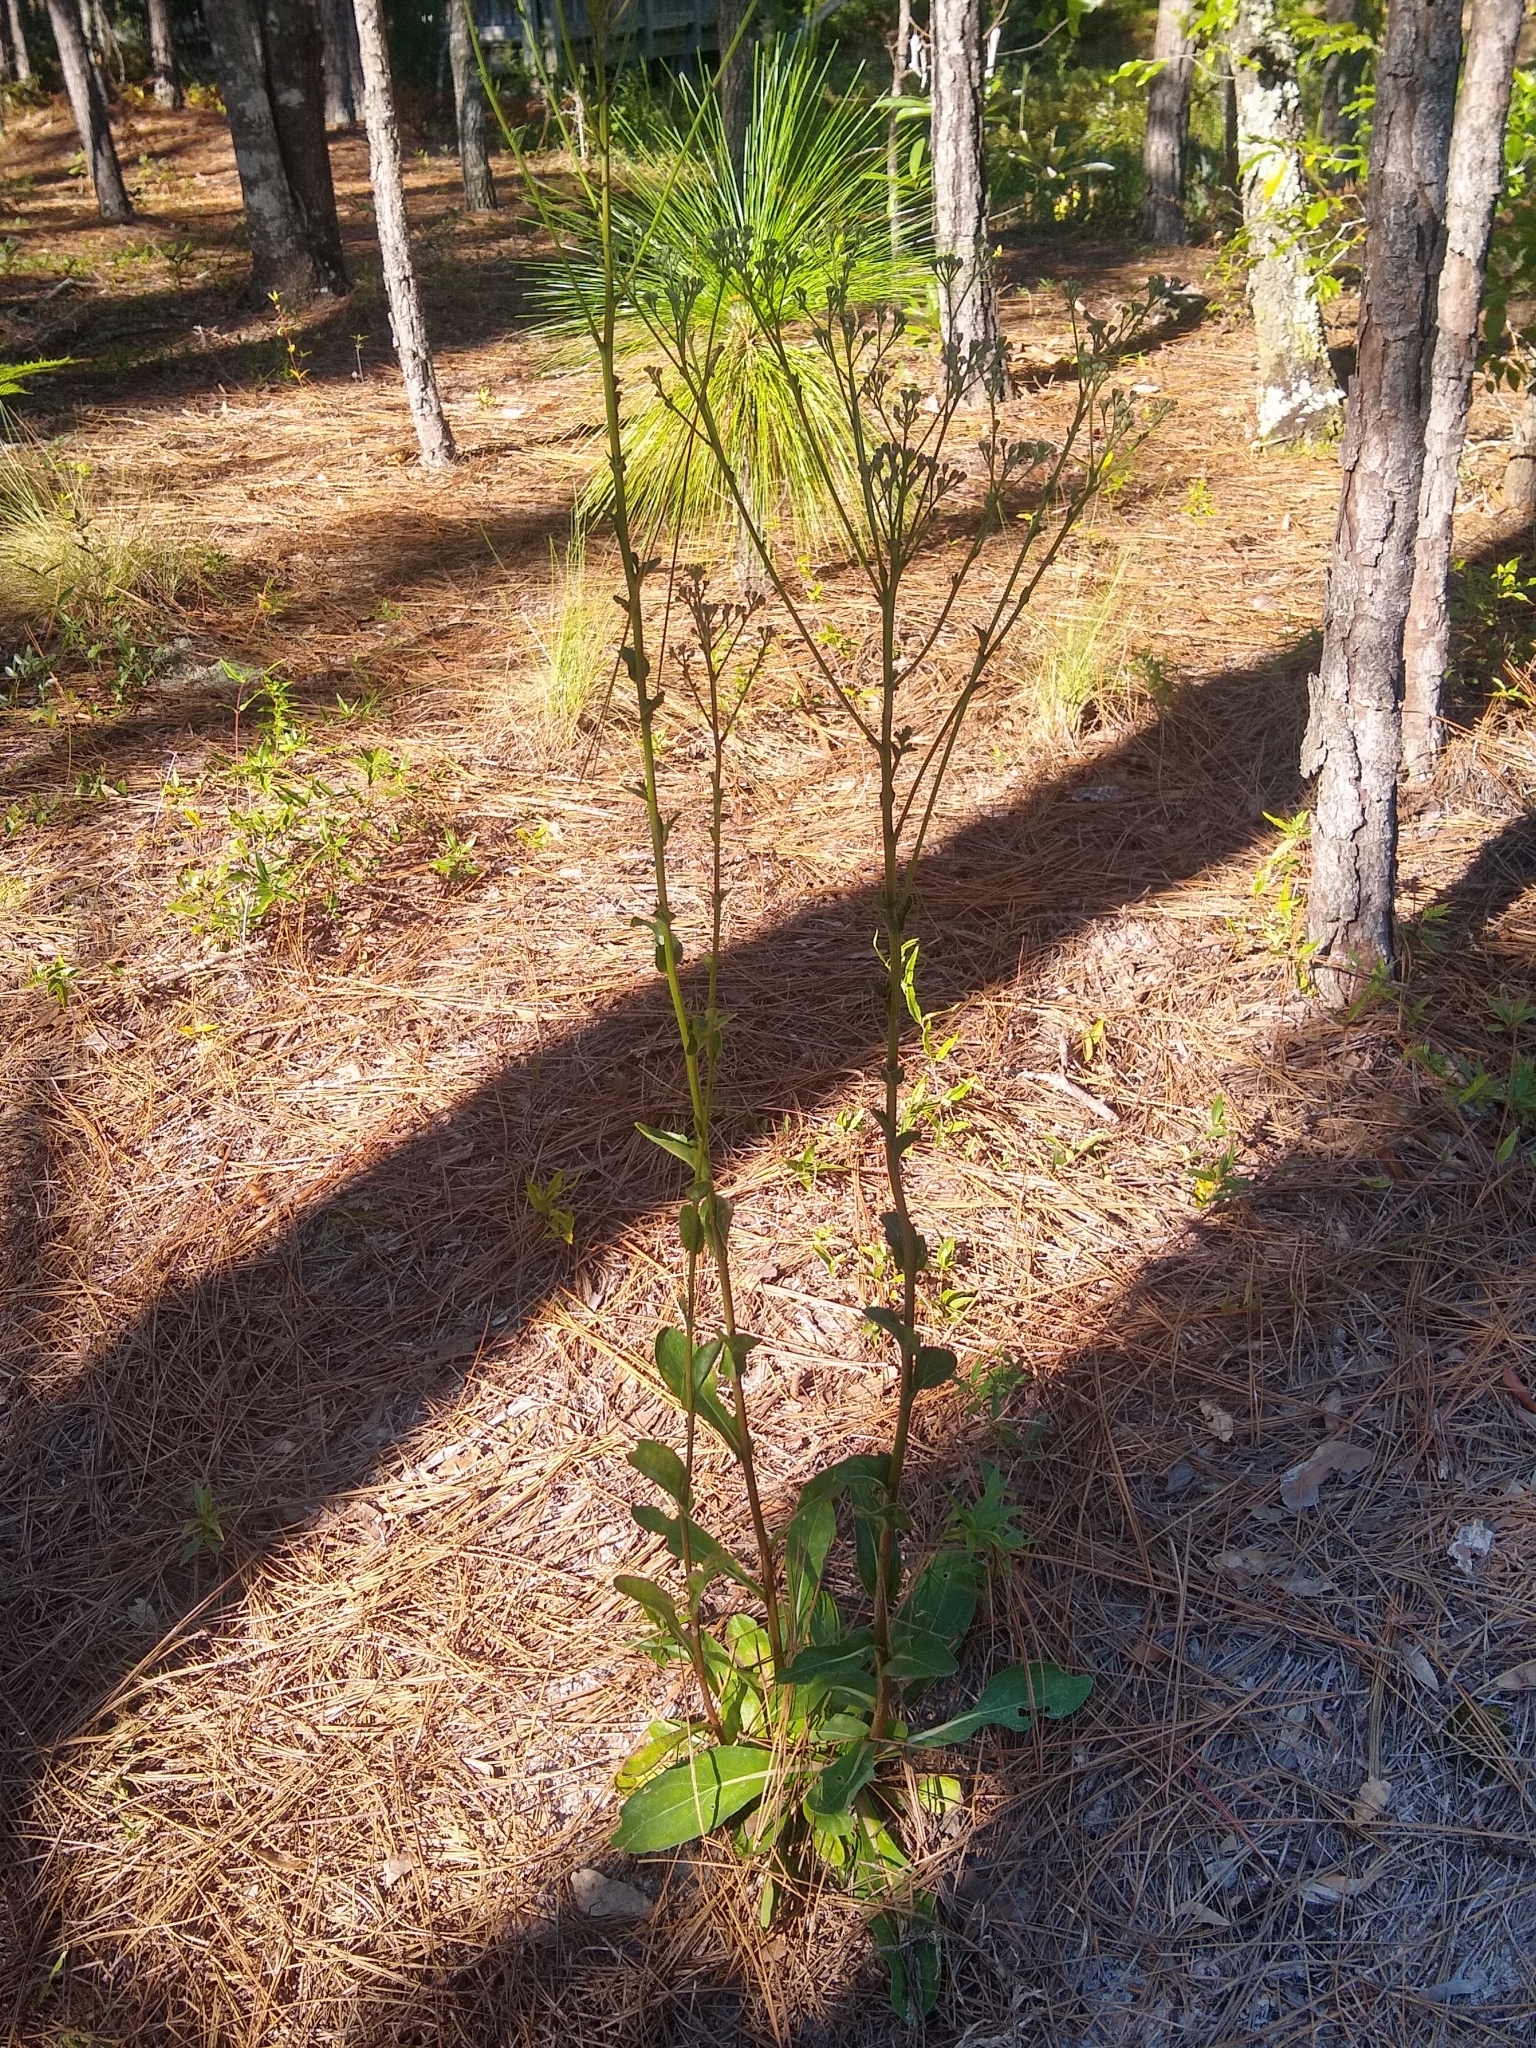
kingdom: Plantae
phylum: Tracheophyta
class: Magnoliopsida
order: Asterales
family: Asteraceae
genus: Carphephorus
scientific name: Carphephorus odoratissimus
